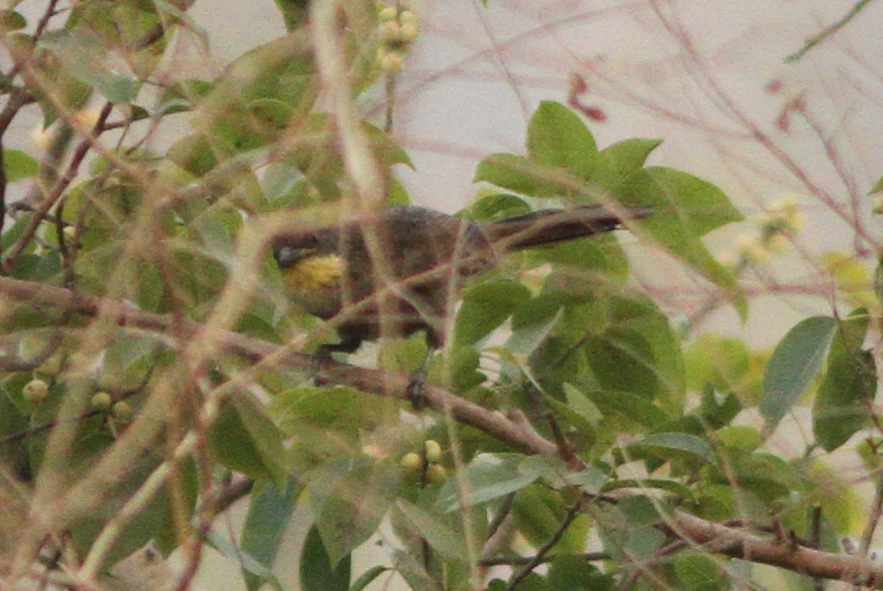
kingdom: Animalia
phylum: Chordata
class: Aves
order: Passeriformes
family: Pycnonotidae
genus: Atimastillas
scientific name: Atimastillas flavicollis
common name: Yellow-throated leaflove
